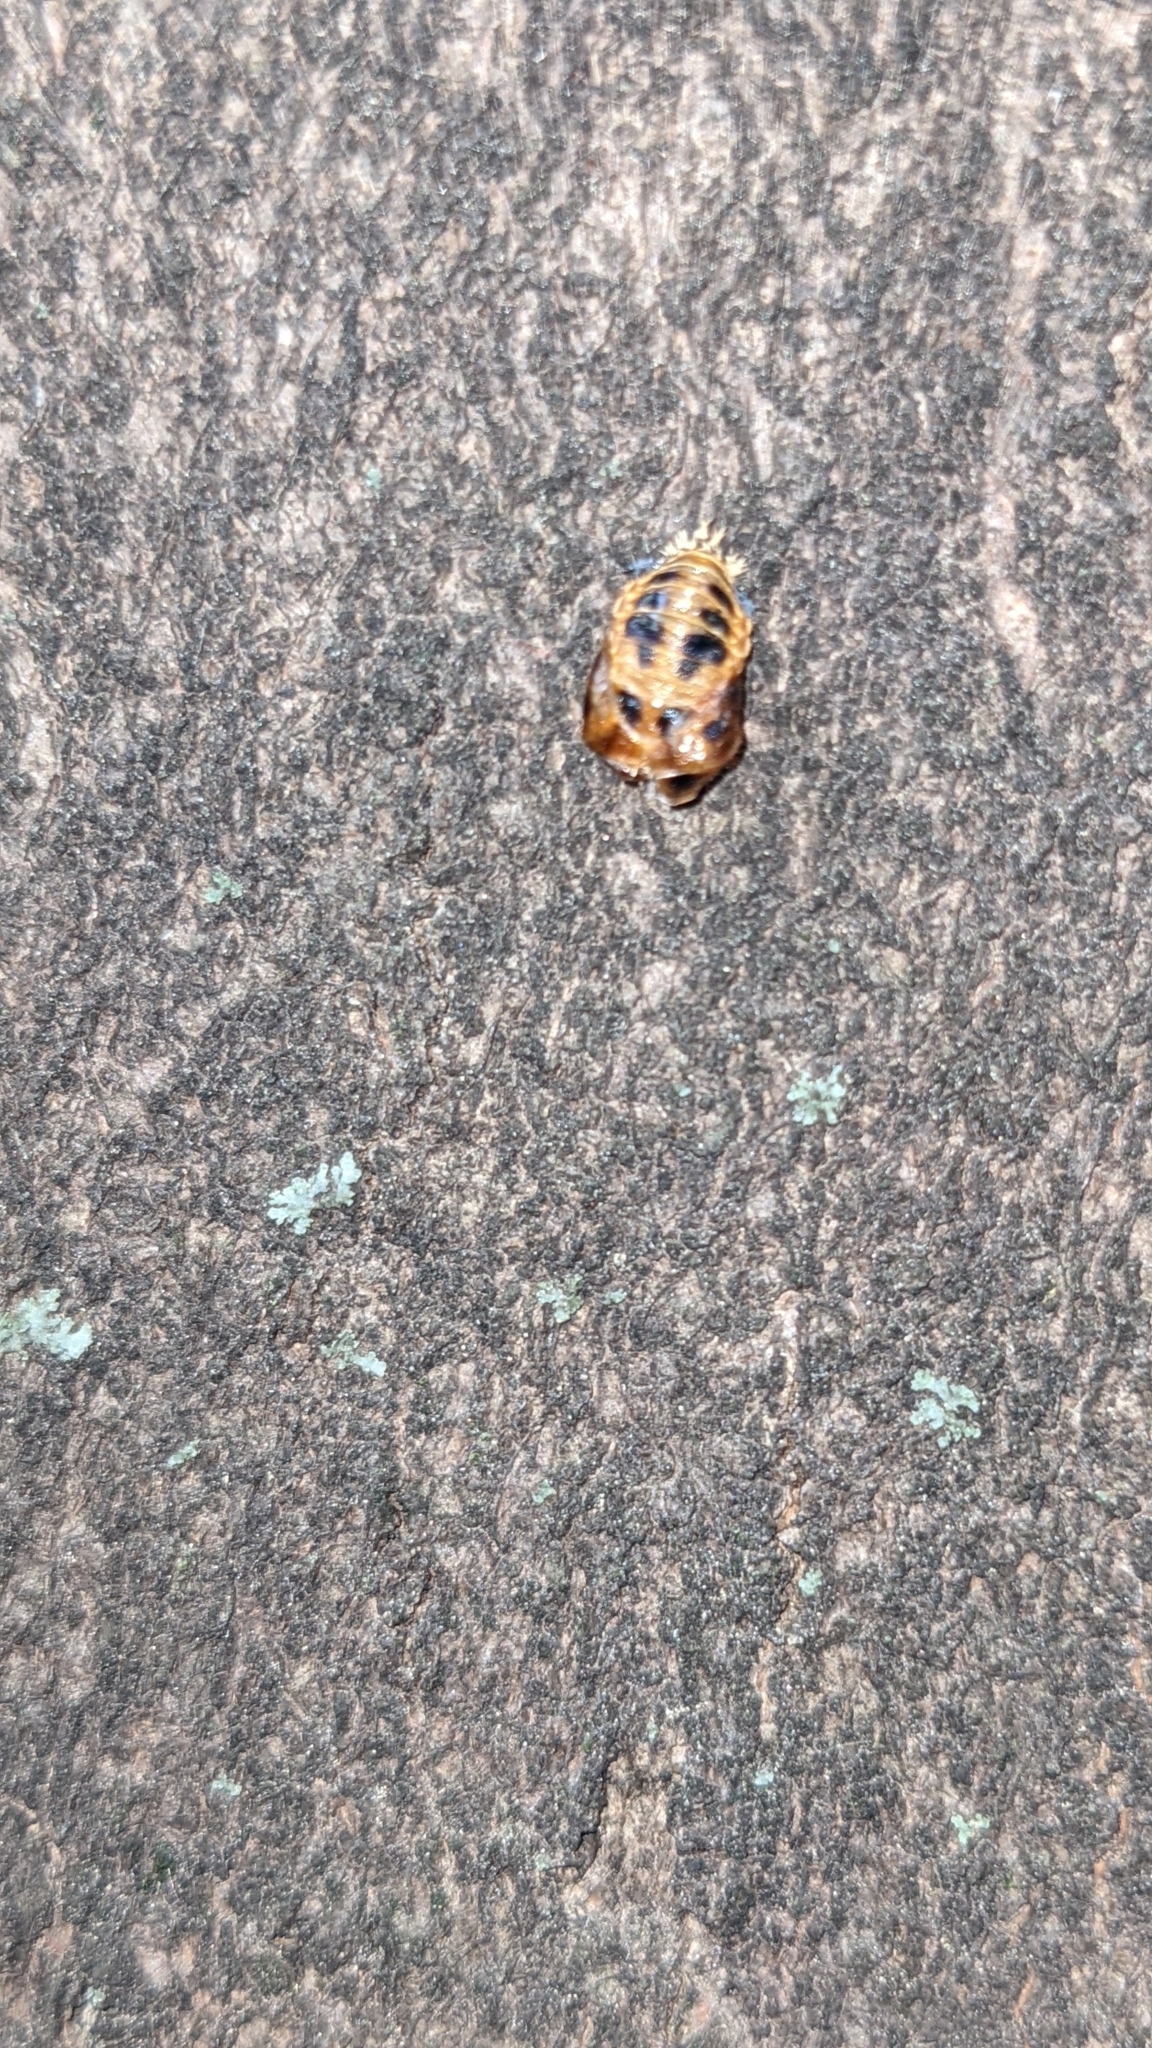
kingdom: Animalia
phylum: Arthropoda
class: Insecta
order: Coleoptera
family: Coccinellidae
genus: Harmonia
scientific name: Harmonia axyridis
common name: Harlequin ladybird
